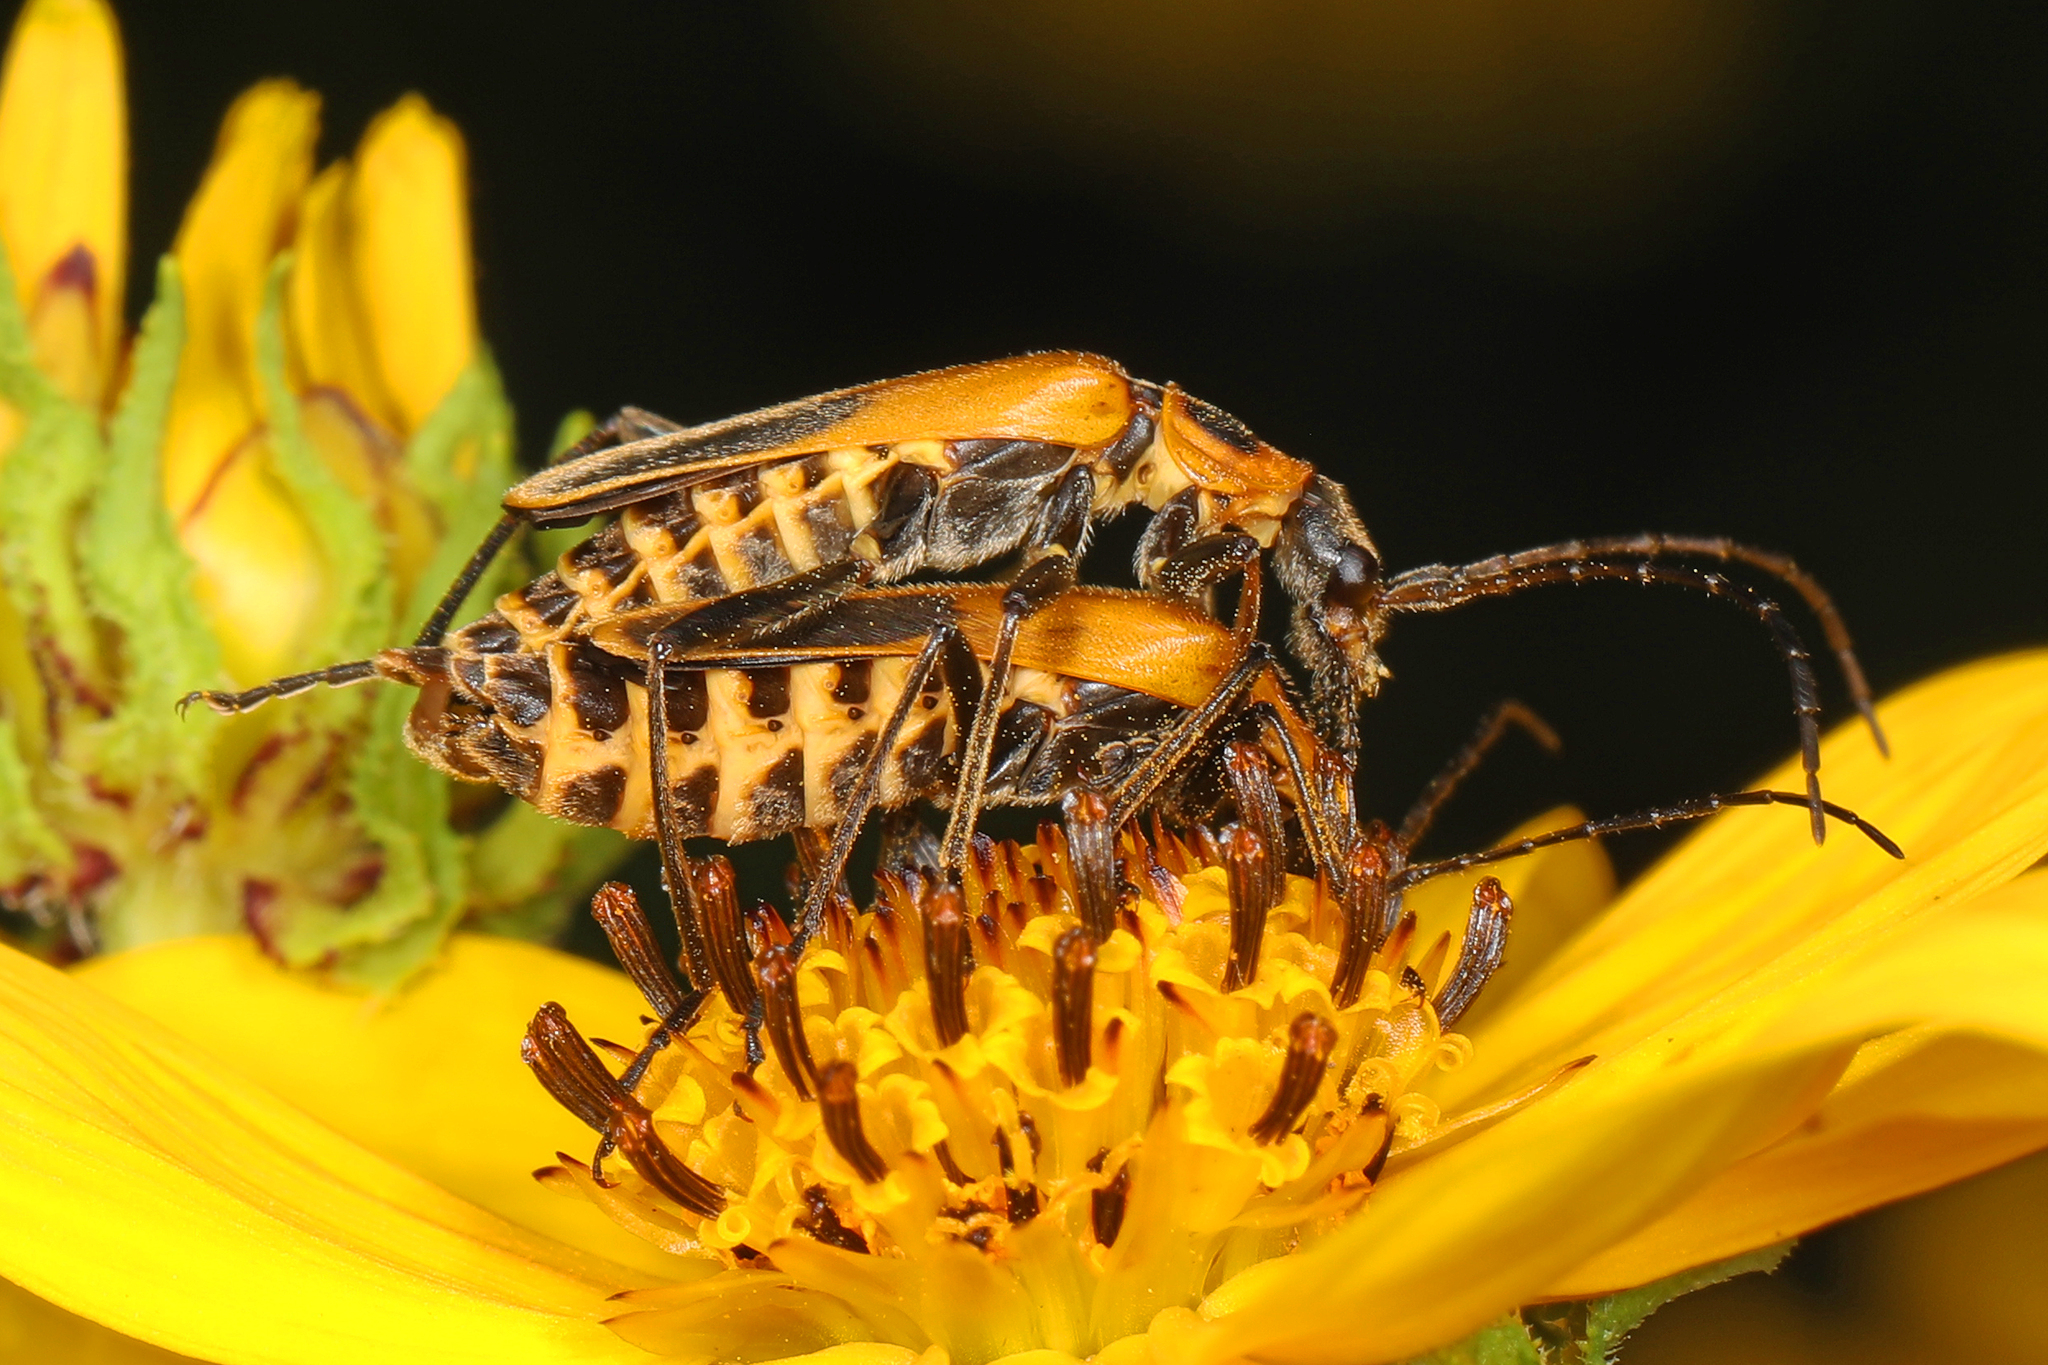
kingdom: Animalia
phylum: Arthropoda
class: Insecta
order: Coleoptera
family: Cantharidae
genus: Chauliognathus
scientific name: Chauliognathus pensylvanicus
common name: Goldenrod soldier beetle
